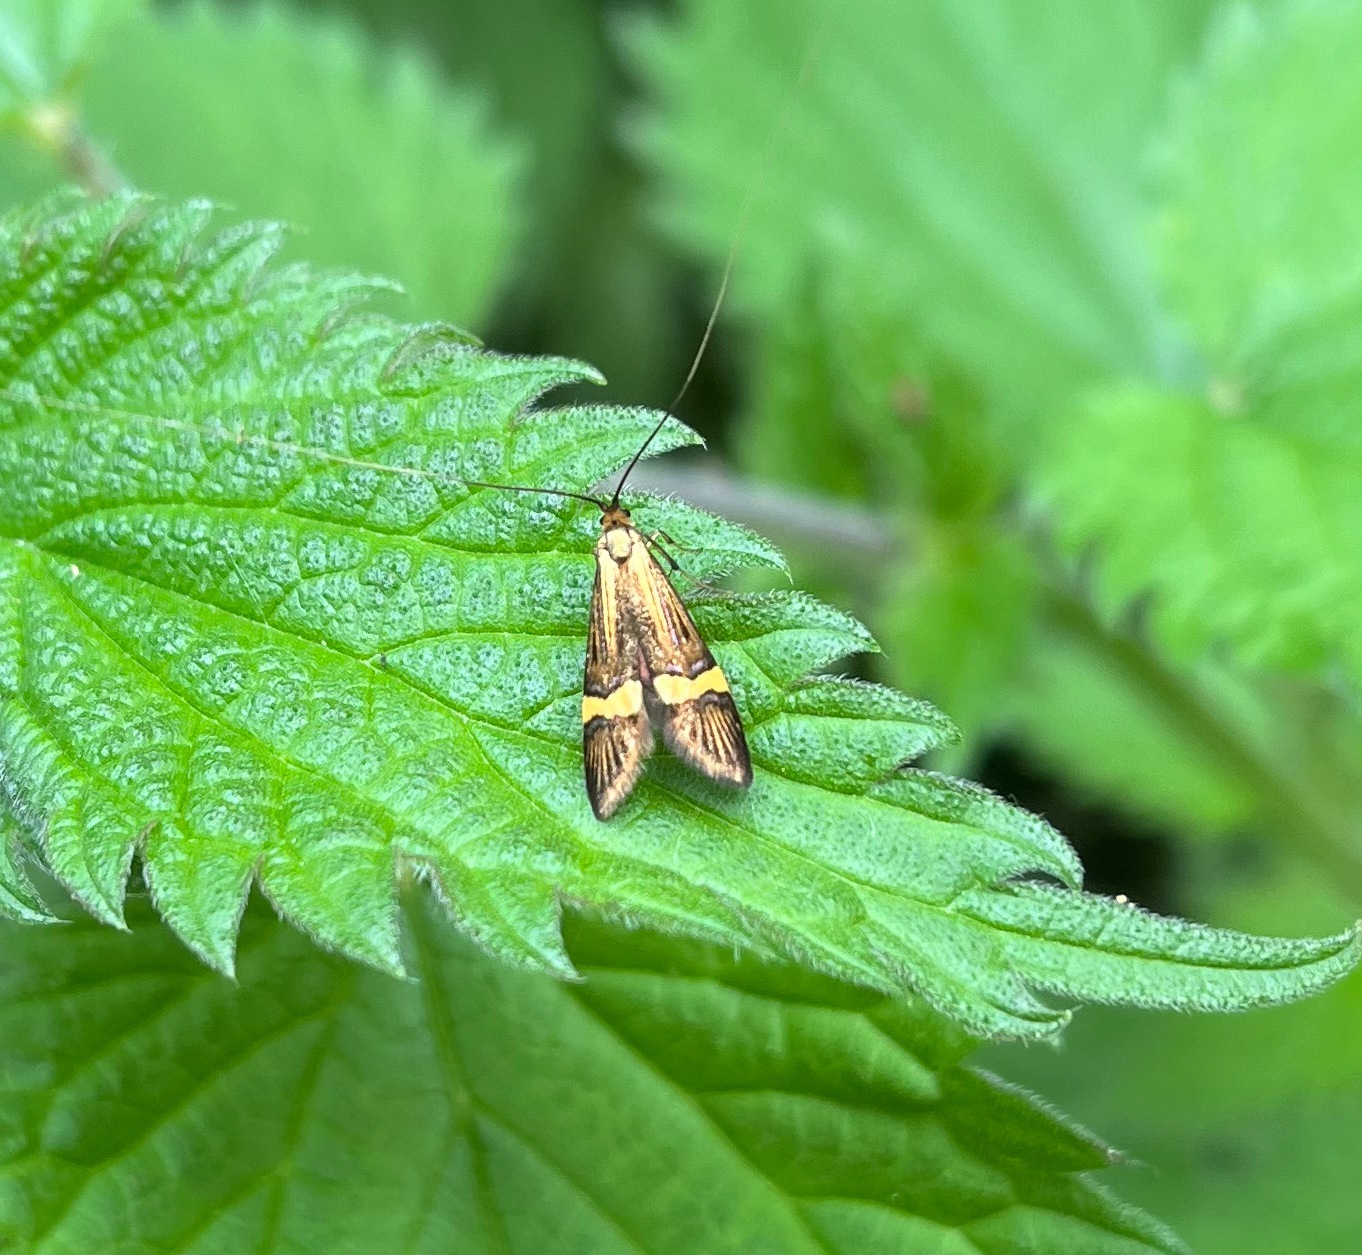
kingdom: Animalia
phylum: Arthropoda
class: Insecta
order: Lepidoptera
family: Adelidae
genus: Nemophora
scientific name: Nemophora degeerella
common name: Yellow-barred long-horn
